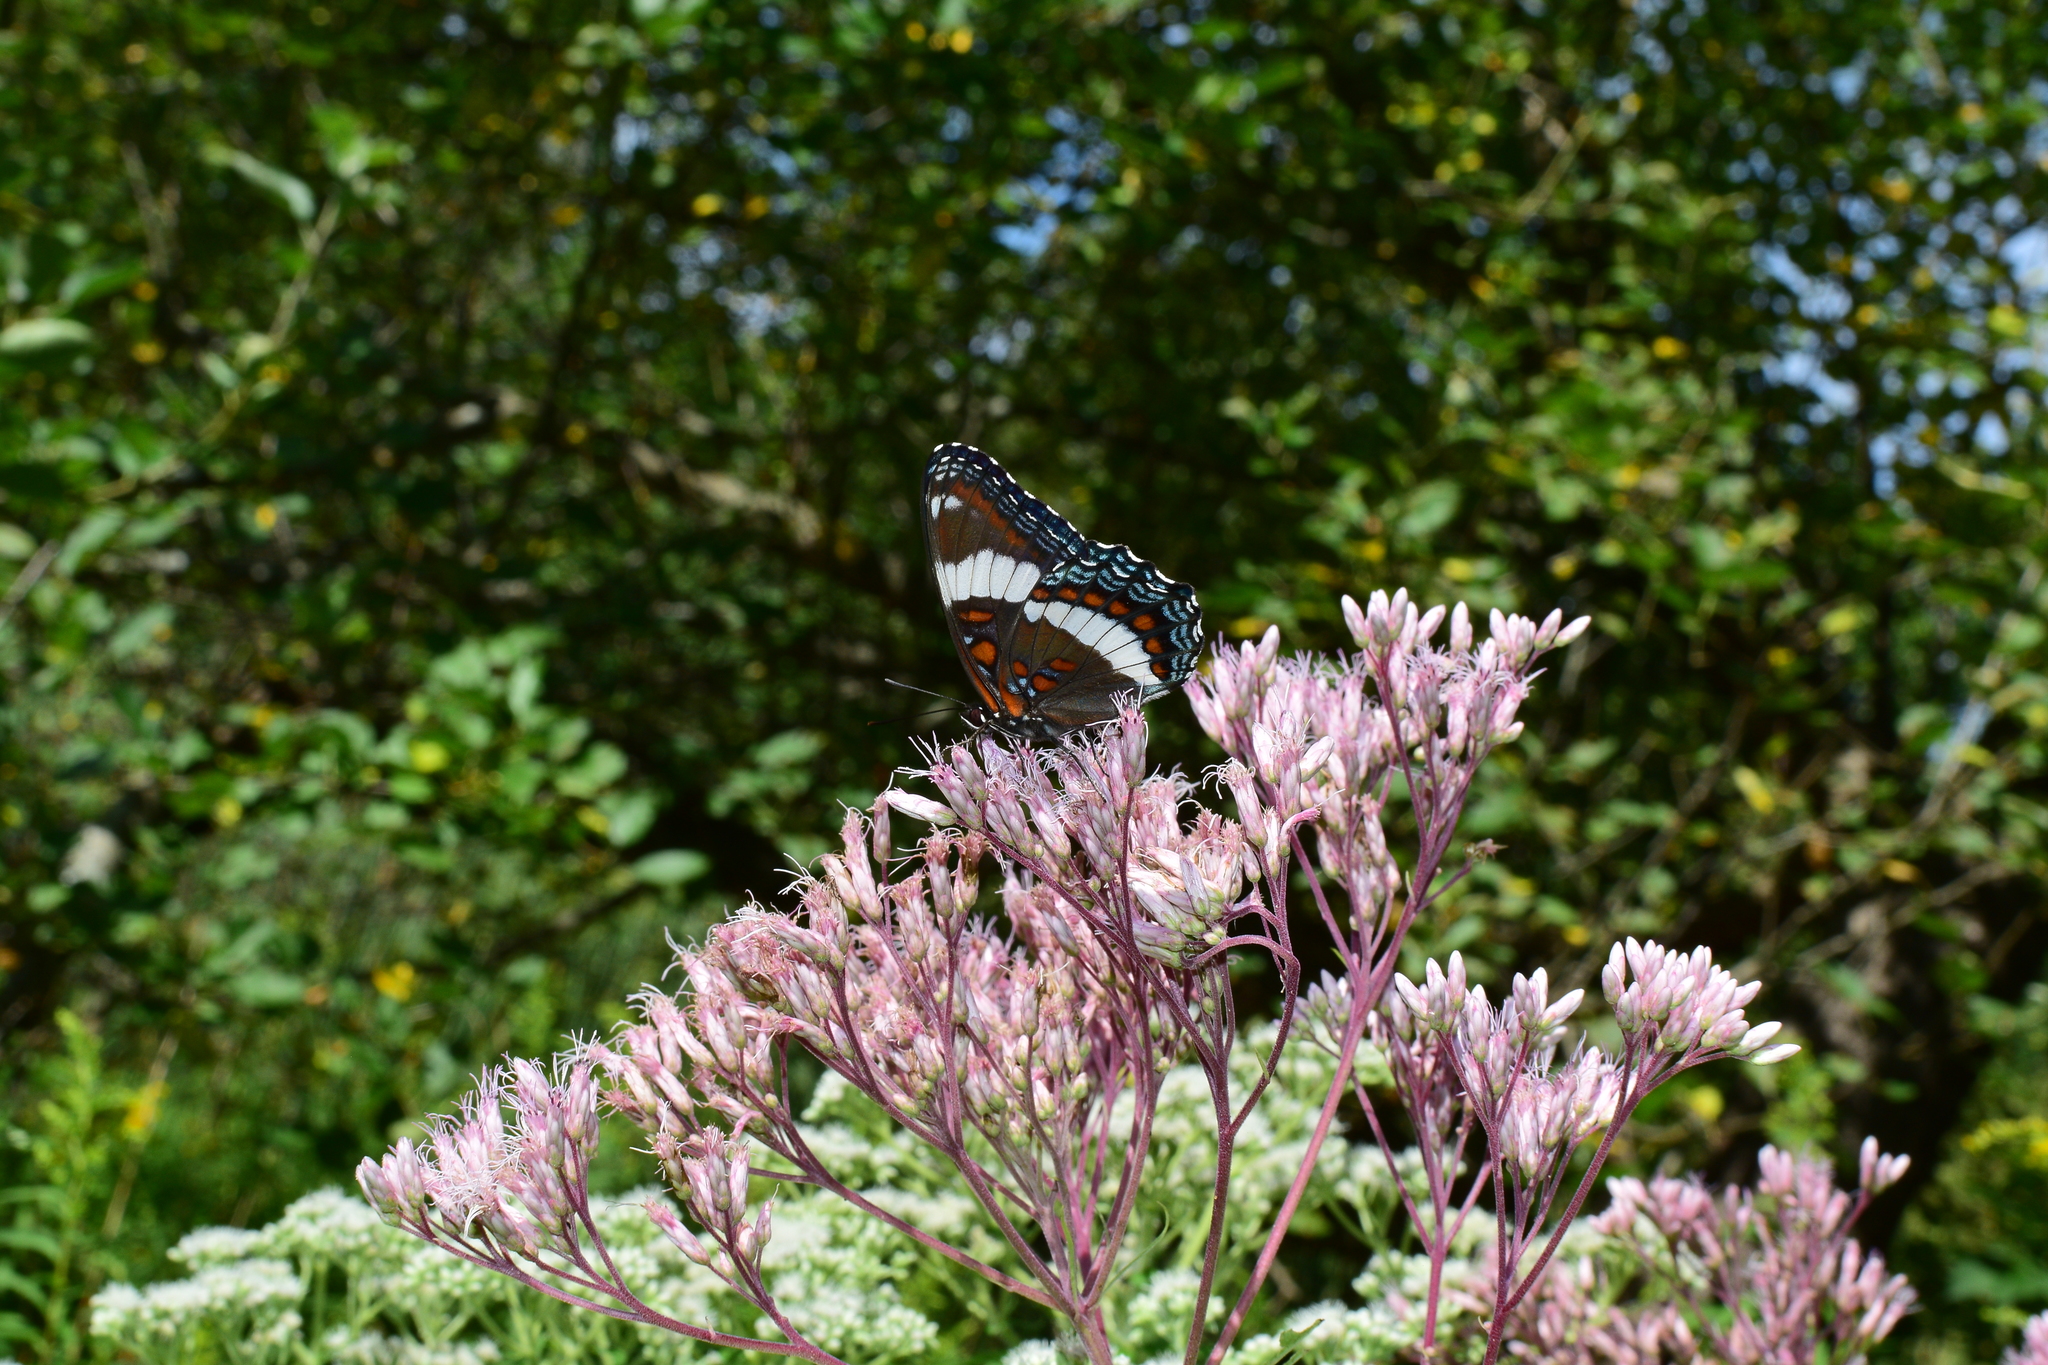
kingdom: Animalia
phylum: Arthropoda
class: Insecta
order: Lepidoptera
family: Nymphalidae
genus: Limenitis
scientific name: Limenitis arthemis
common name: Red-spotted admiral
